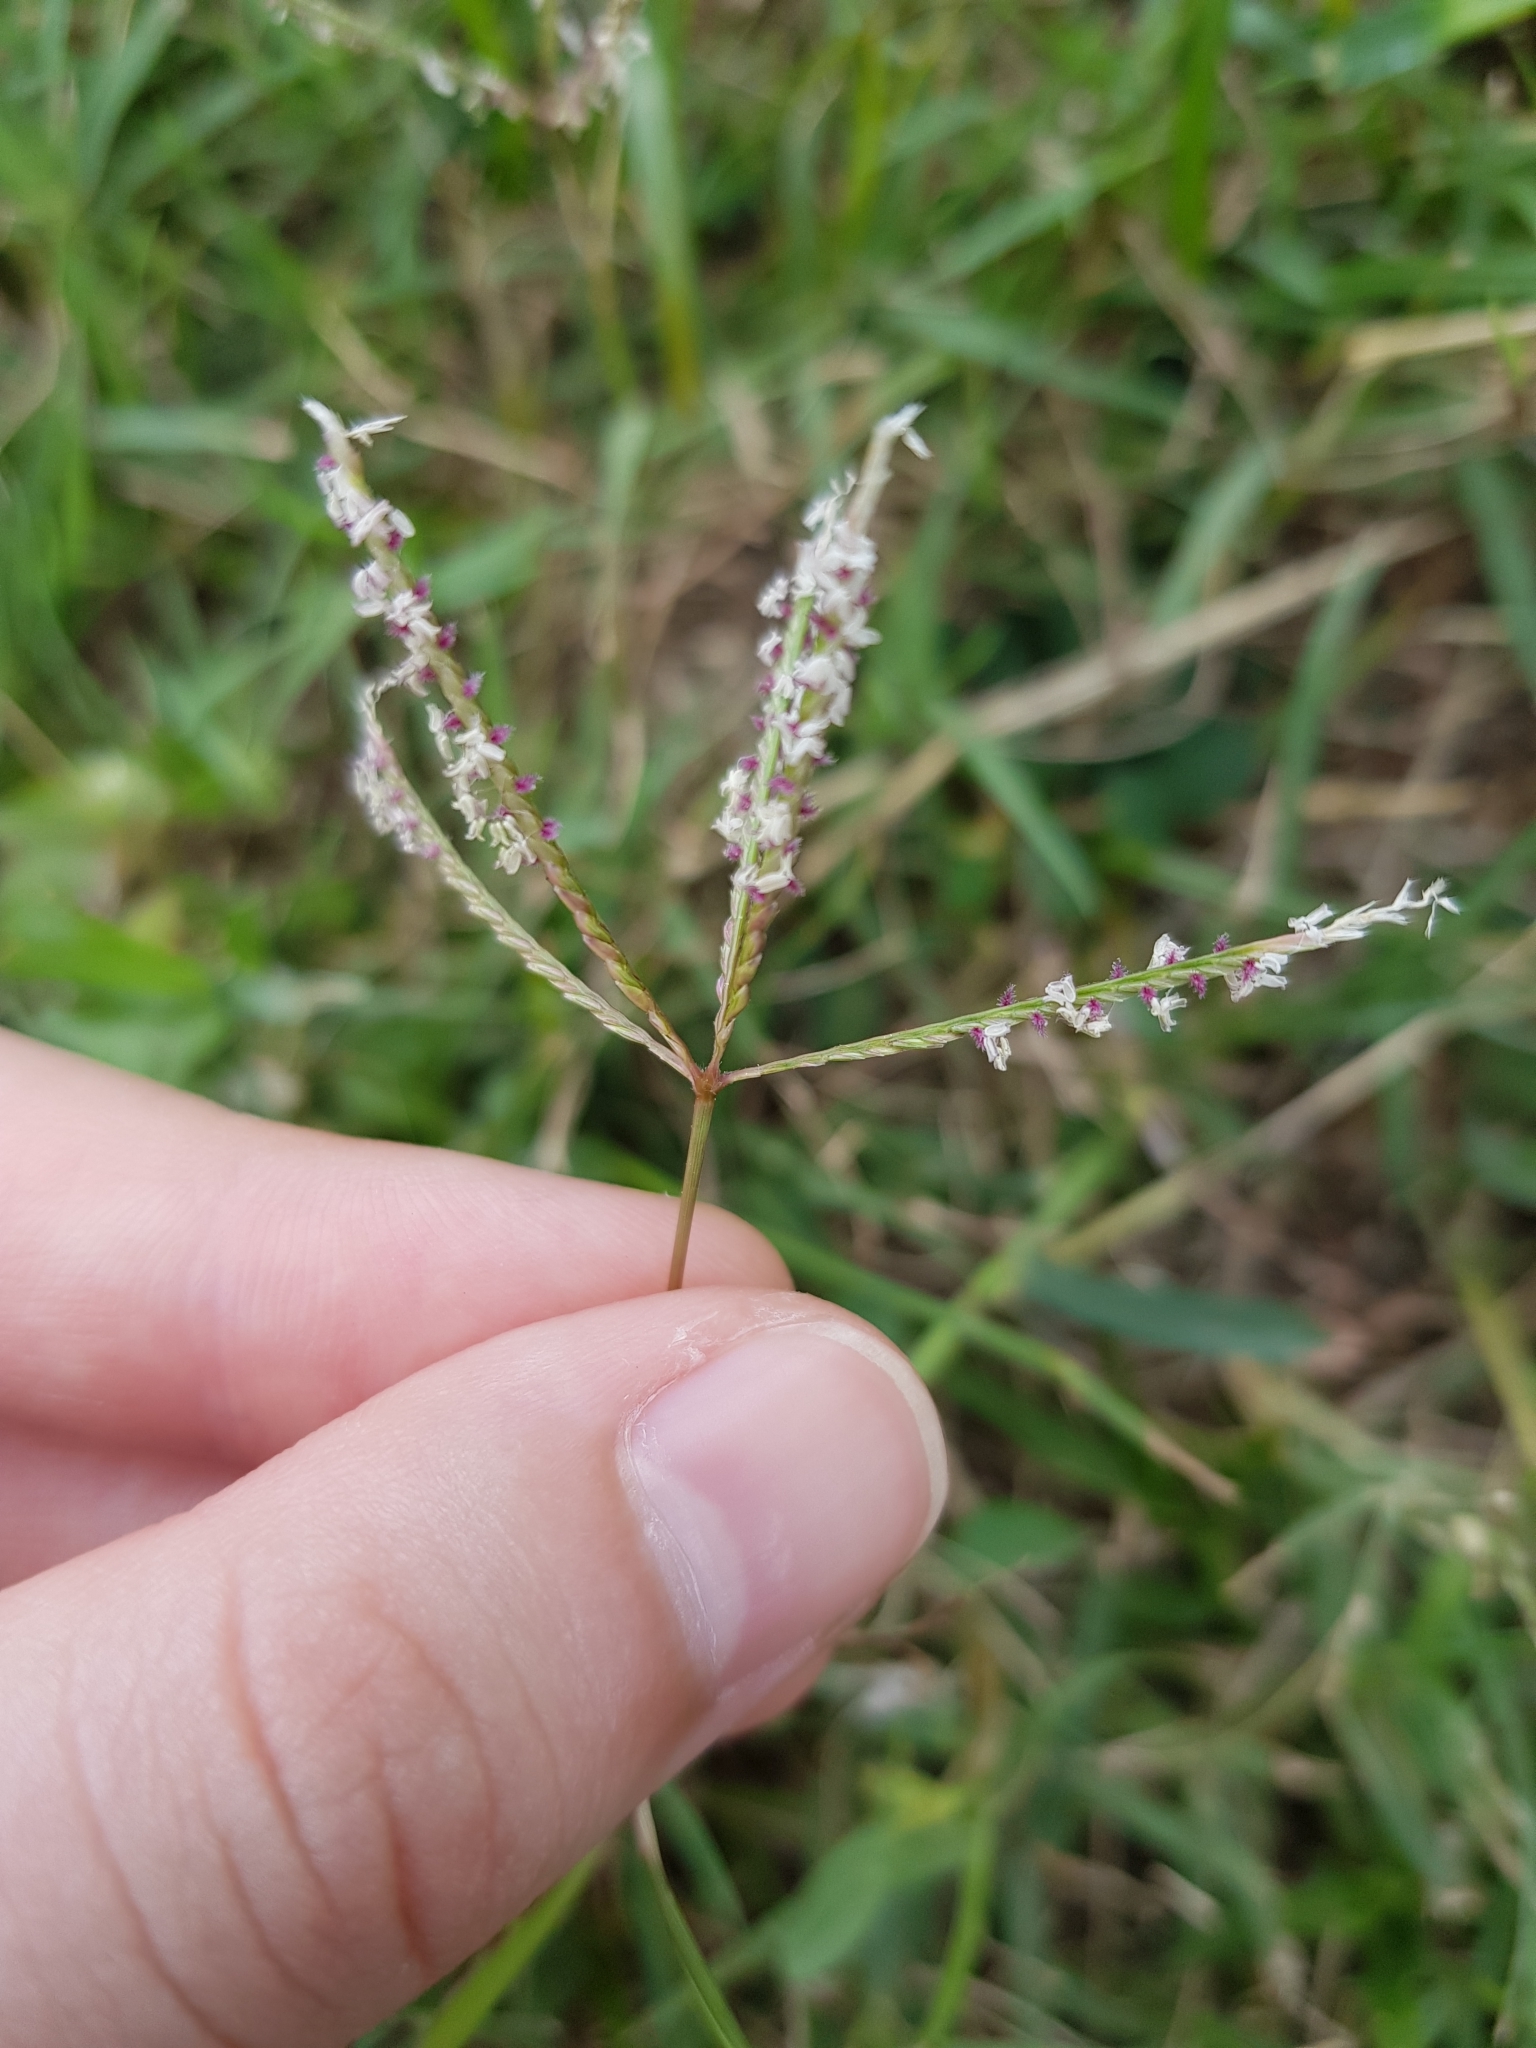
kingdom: Plantae
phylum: Tracheophyta
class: Liliopsida
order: Poales
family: Poaceae
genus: Cynodon
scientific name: Cynodon dactylon
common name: Bermuda grass
